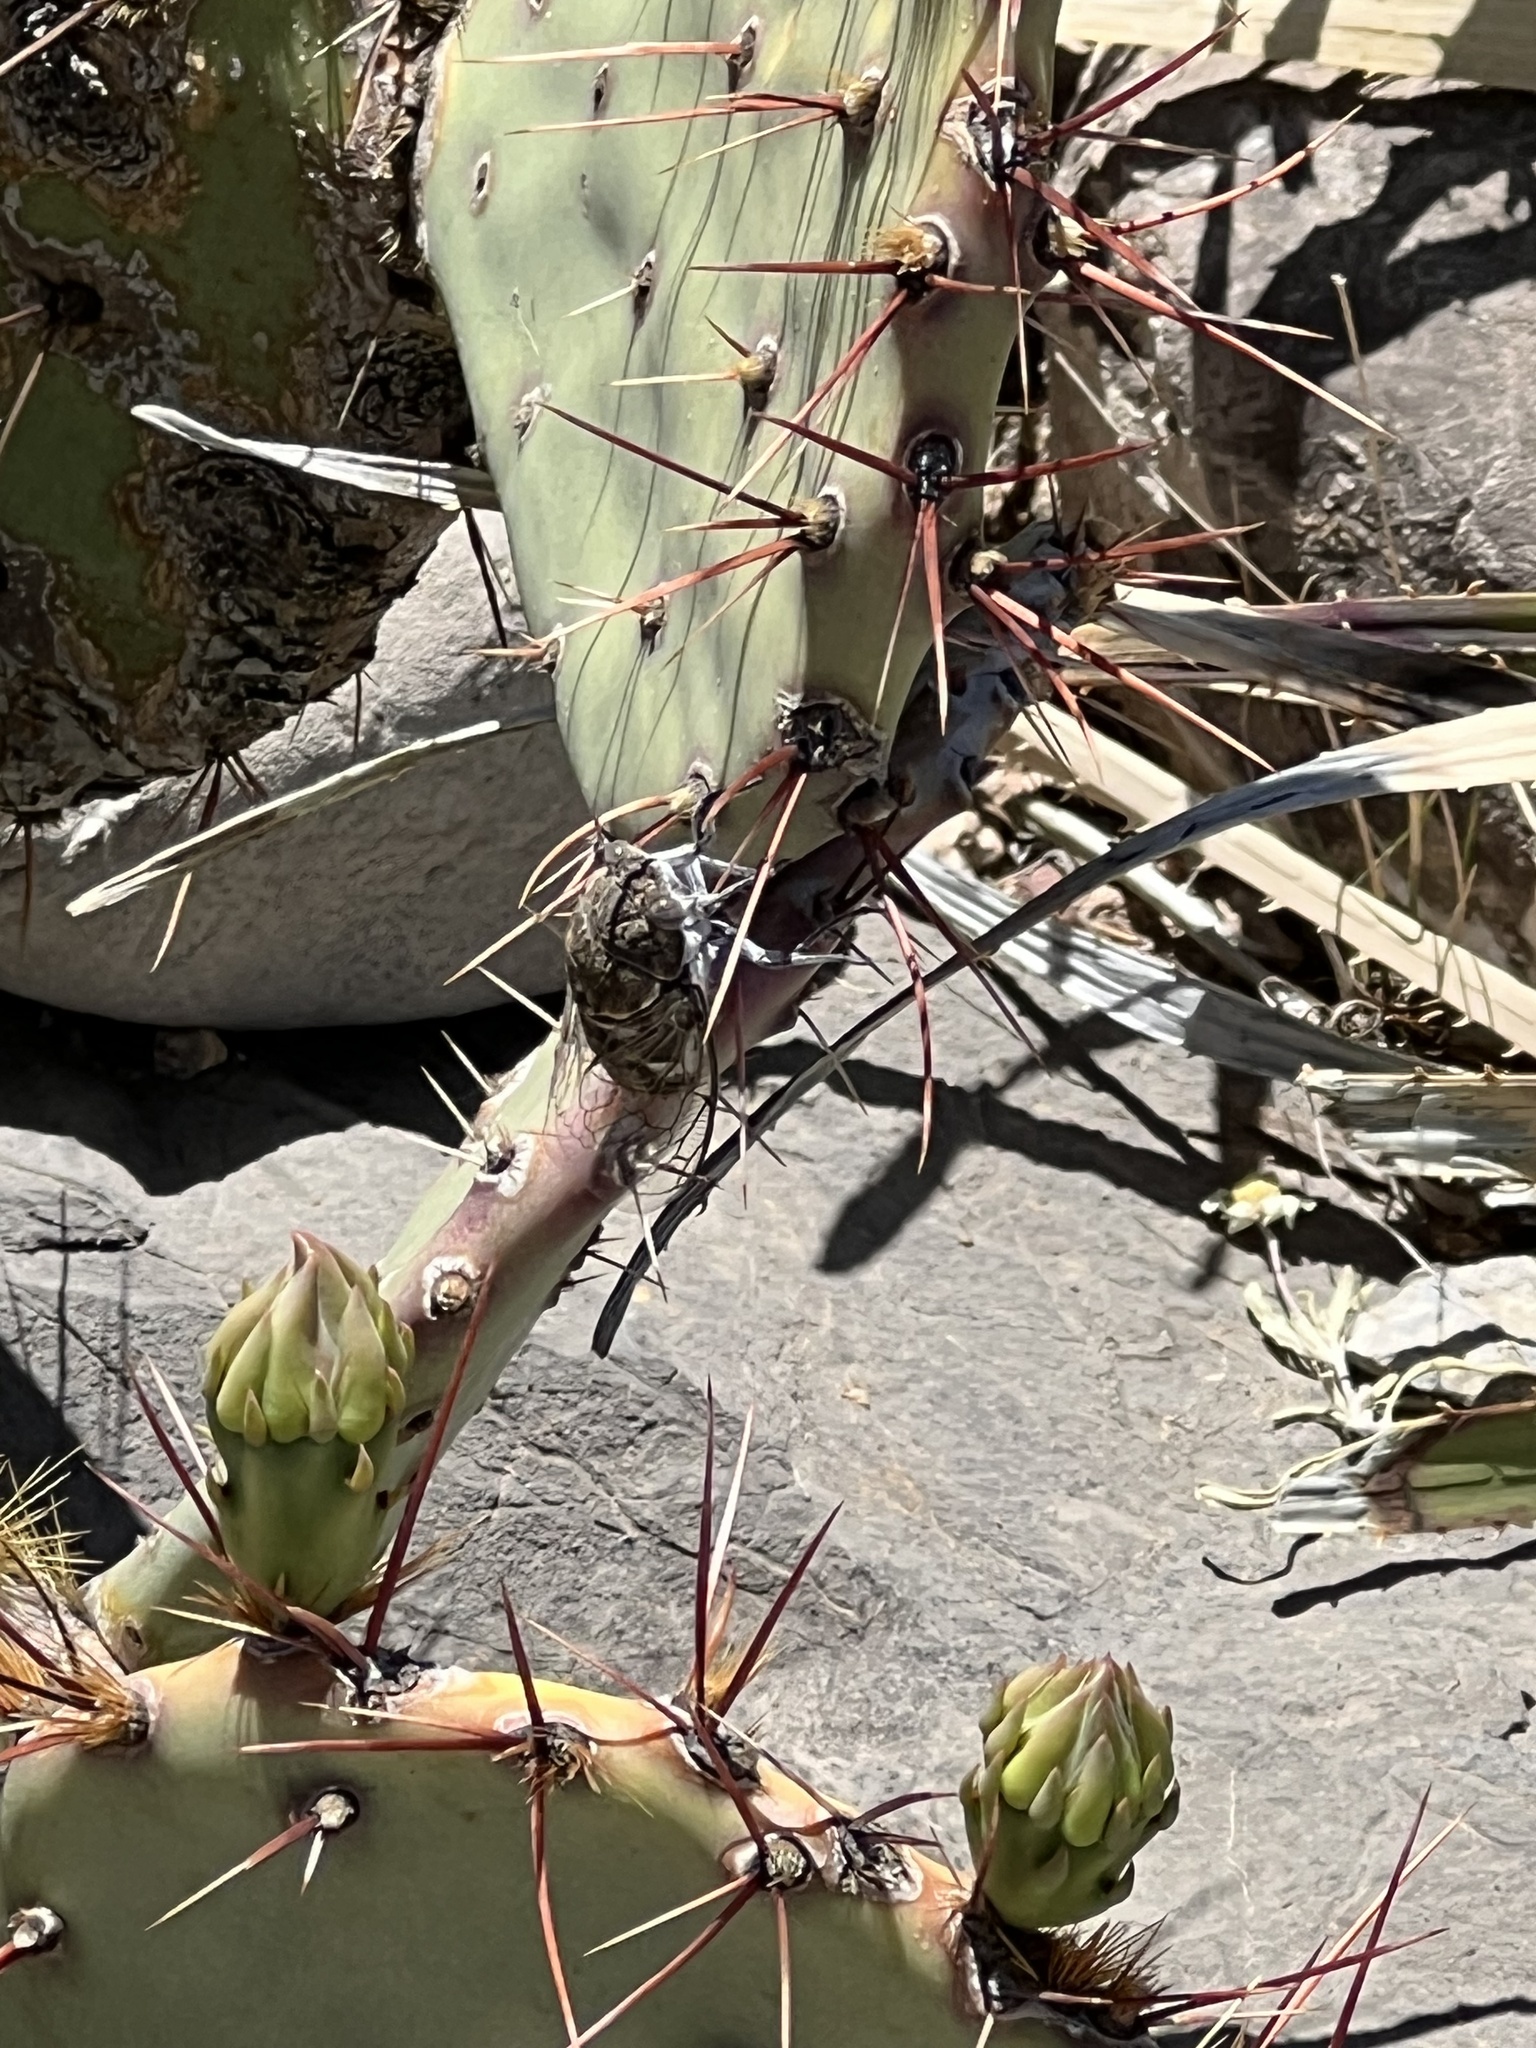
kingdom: Animalia
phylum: Arthropoda
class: Insecta
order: Hemiptera
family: Cicadidae
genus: Cacama
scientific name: Cacama valvata
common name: Cactus dodger
